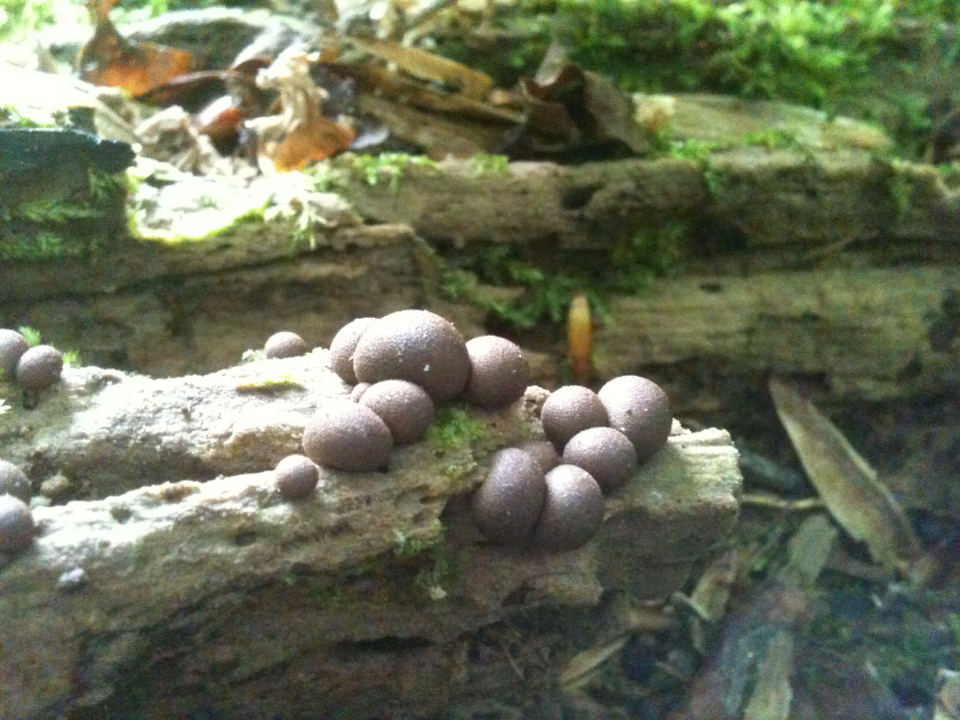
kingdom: Protozoa
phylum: Mycetozoa
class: Myxomycetes
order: Cribrariales
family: Tubiferaceae
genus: Lycogala
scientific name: Lycogala epidendrum
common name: Wolf's milk
